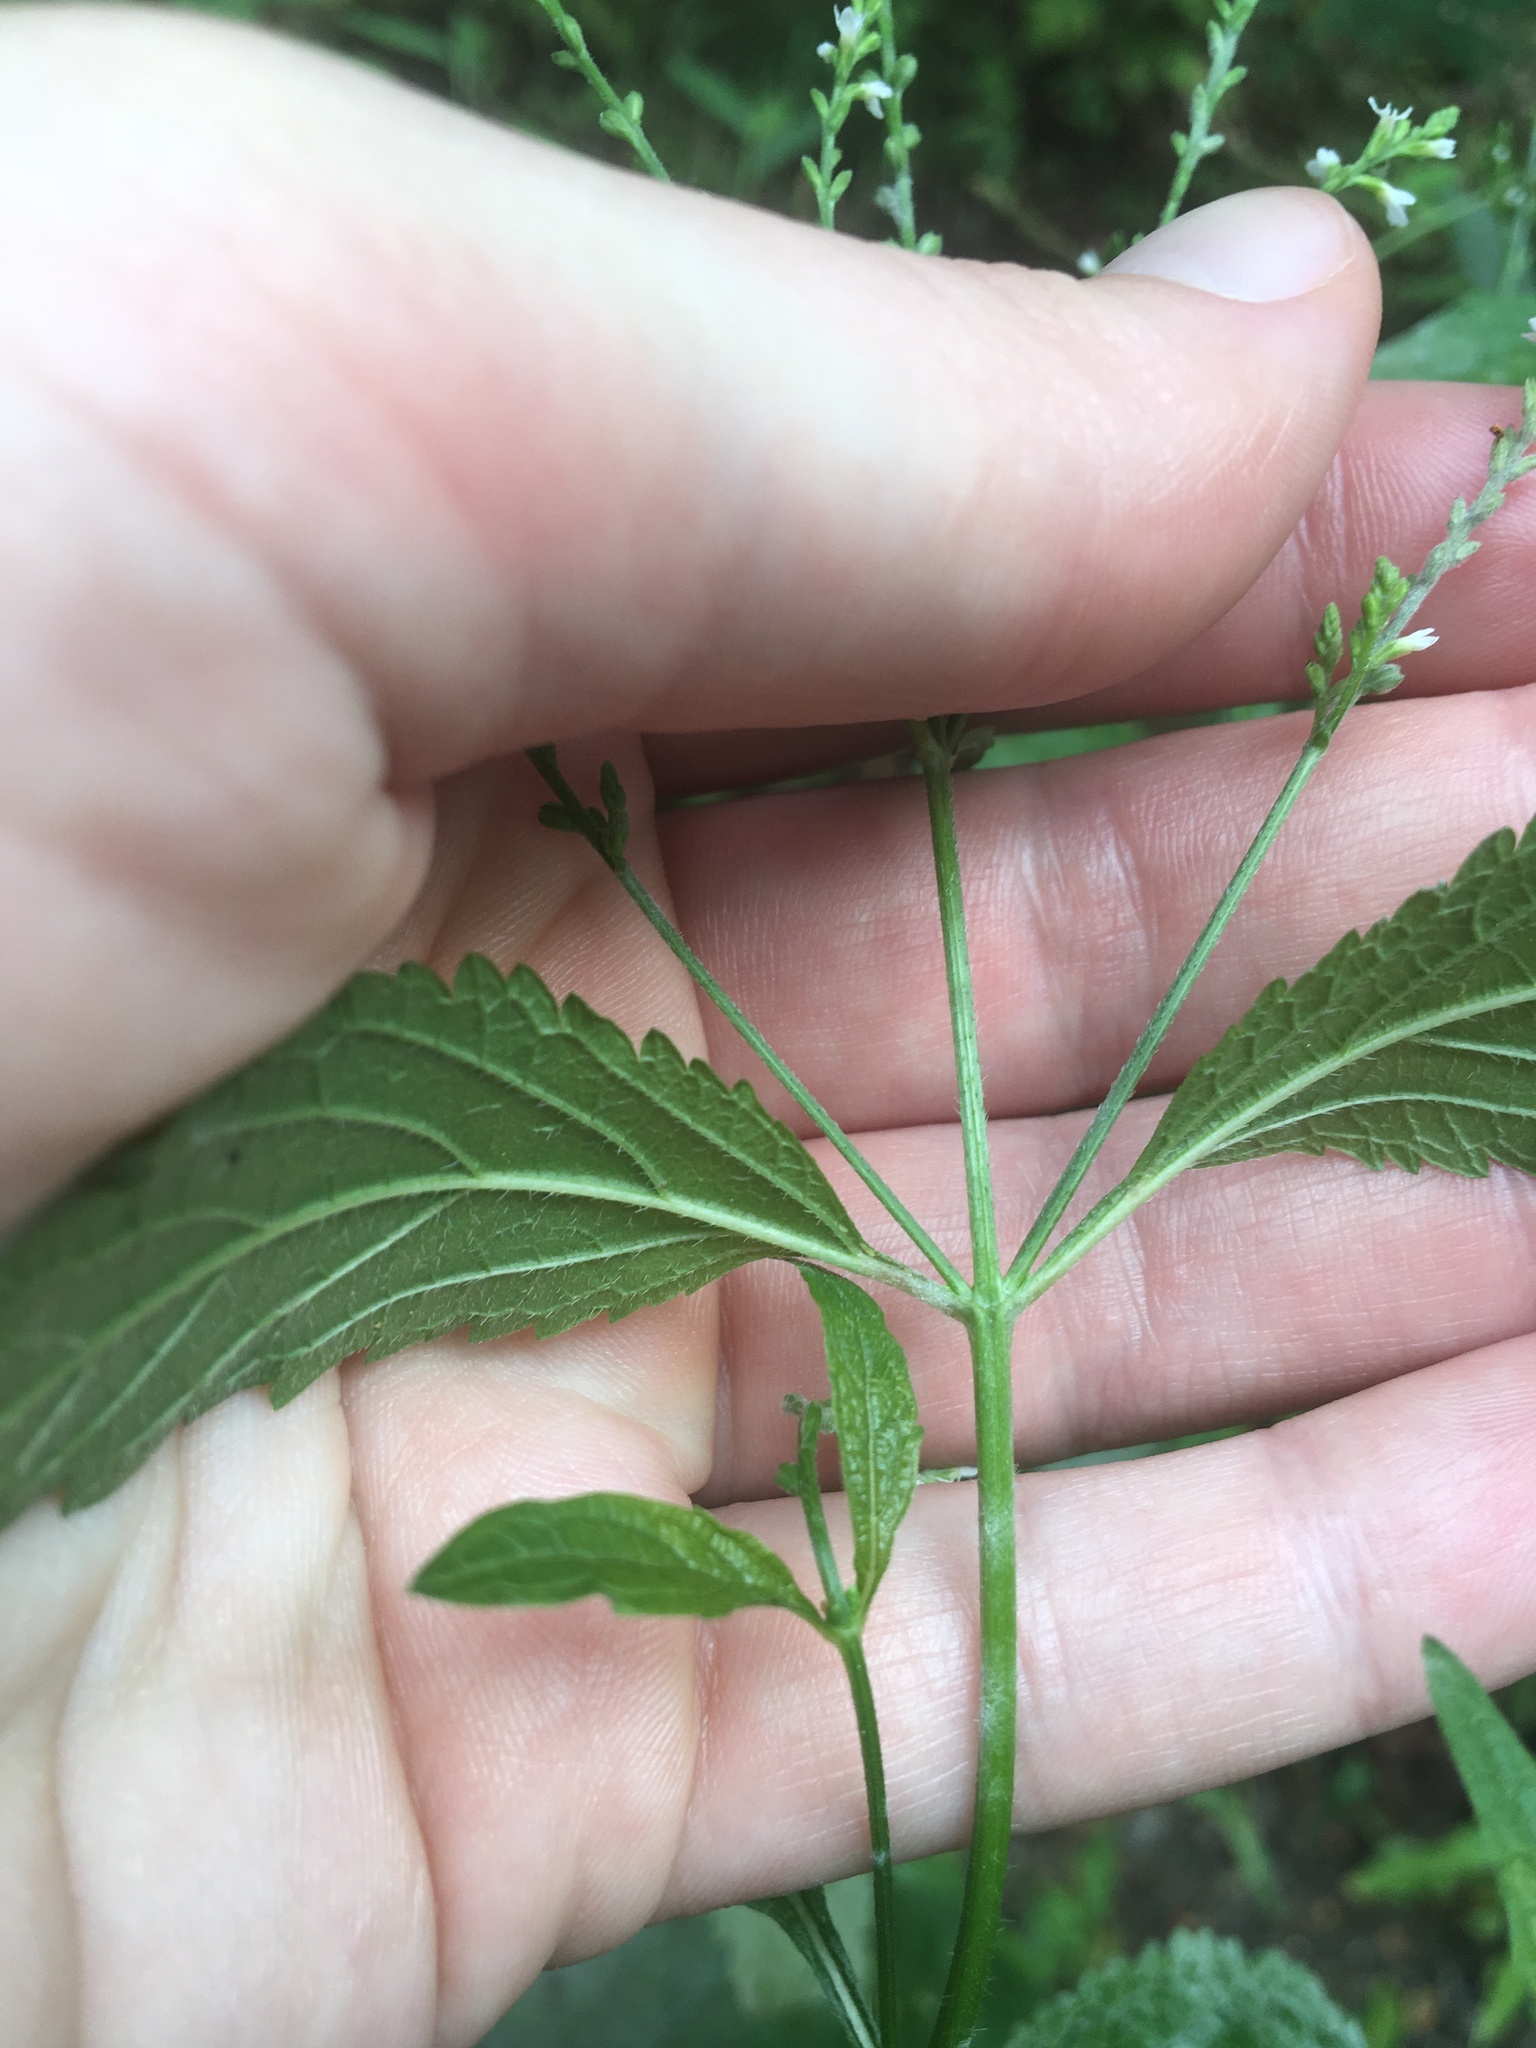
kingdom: Plantae
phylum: Tracheophyta
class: Magnoliopsida
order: Lamiales
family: Verbenaceae
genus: Verbena
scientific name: Verbena urticifolia
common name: Nettle-leaved vervain
